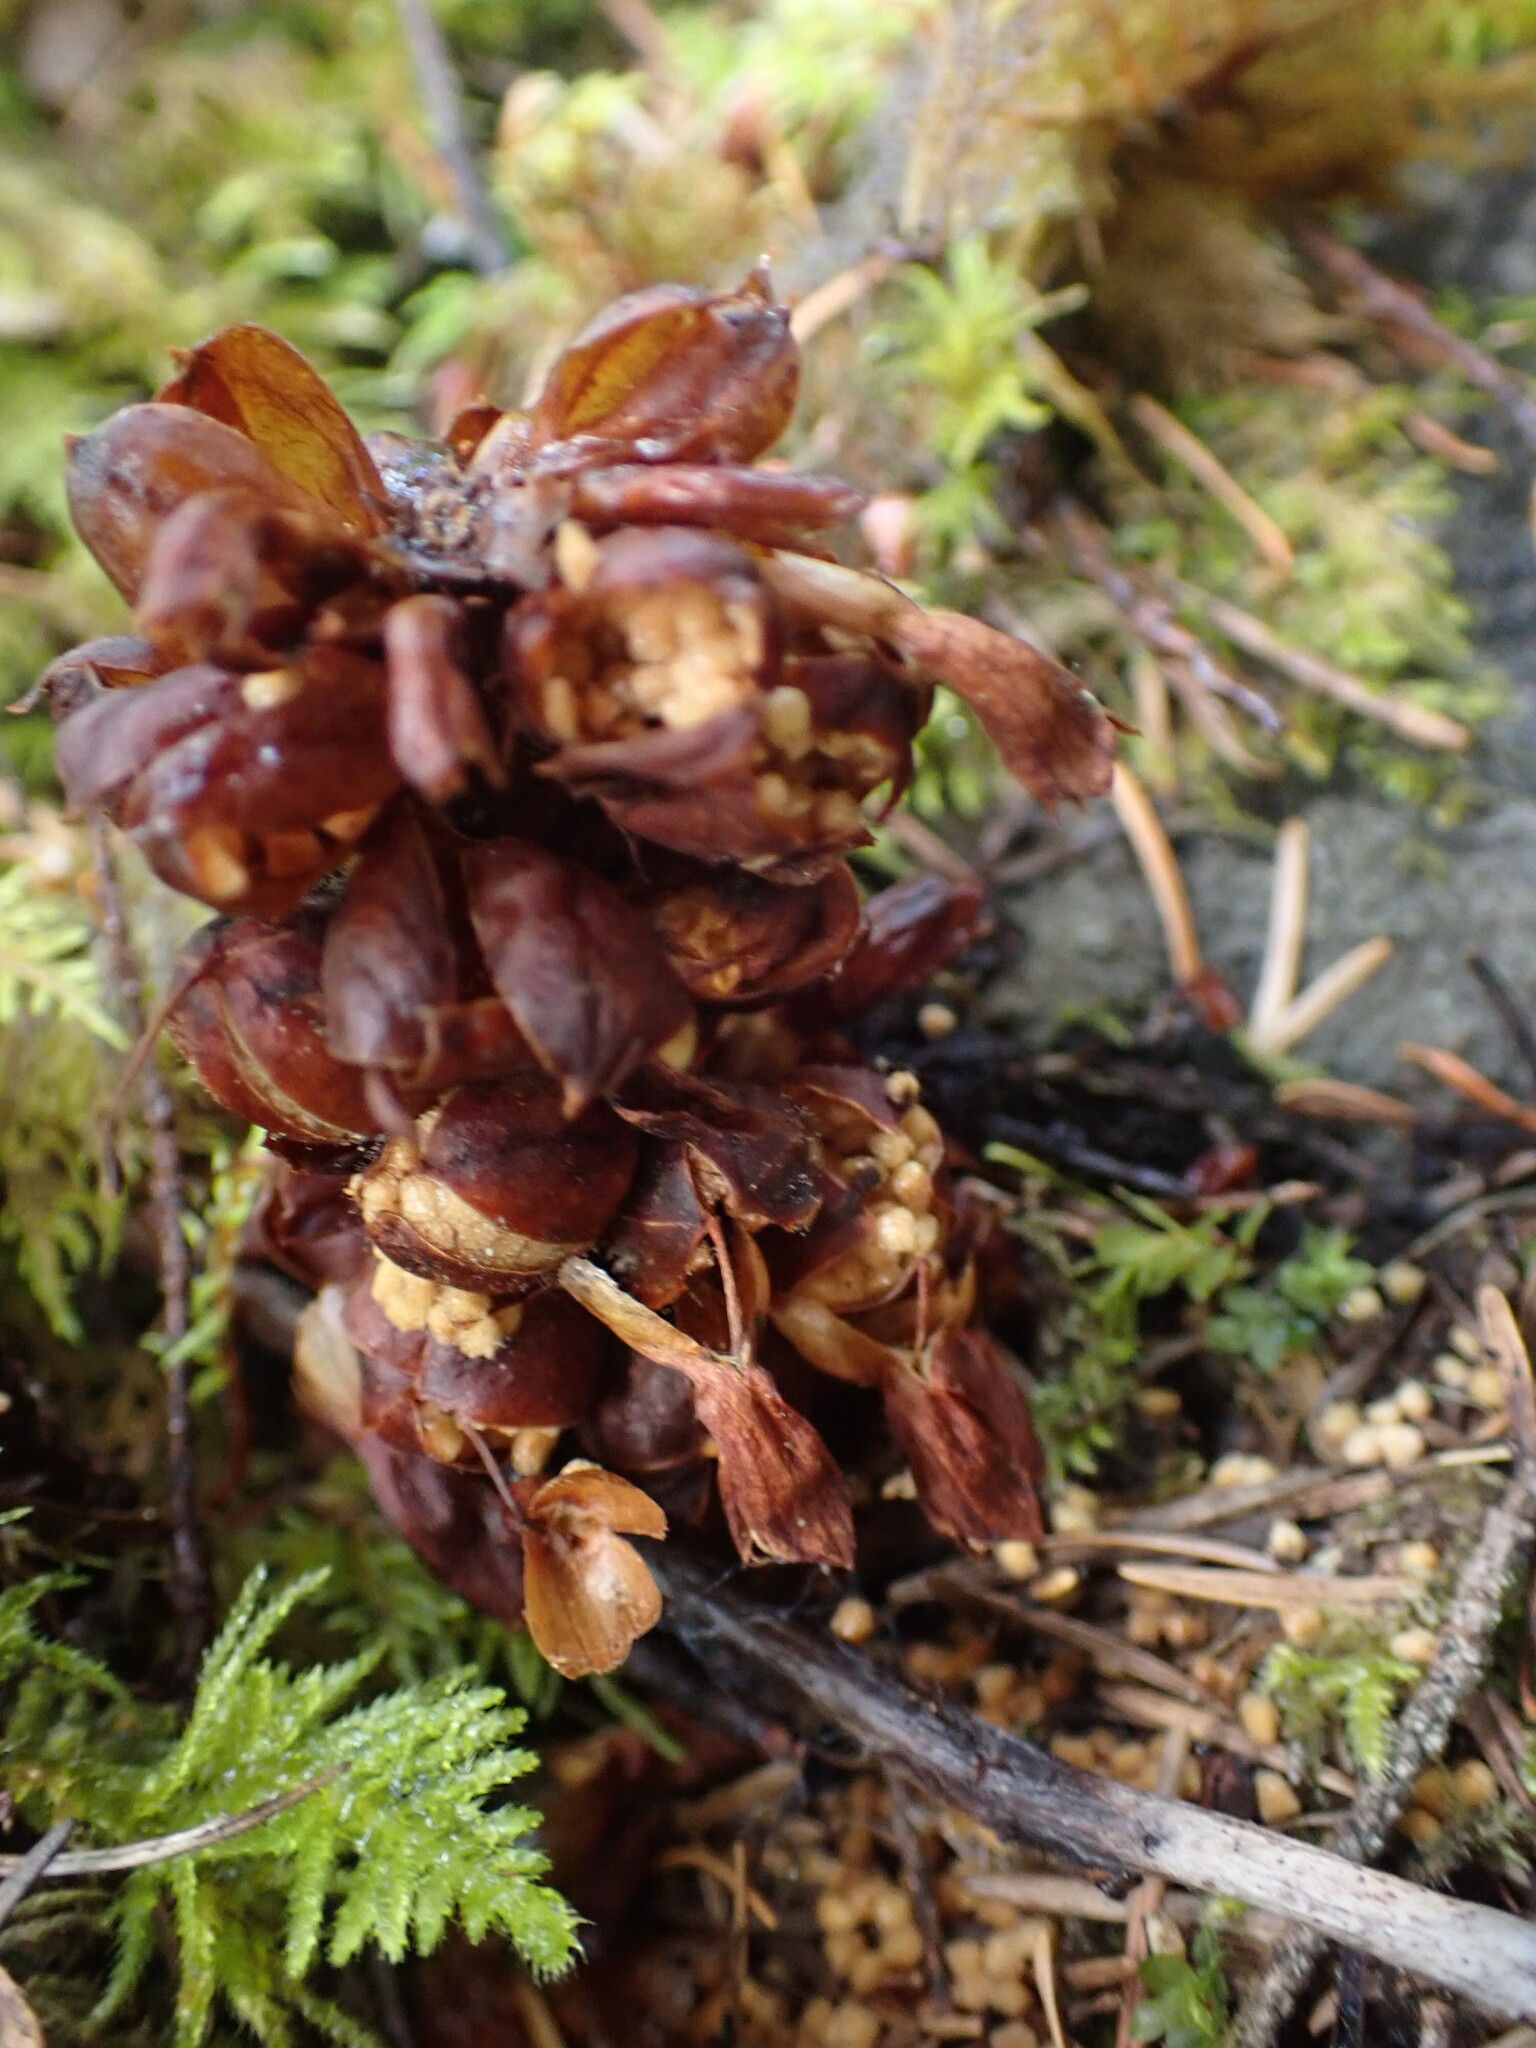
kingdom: Plantae
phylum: Tracheophyta
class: Magnoliopsida
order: Lamiales
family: Orobanchaceae
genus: Kopsiopsis
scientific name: Kopsiopsis hookeri
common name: Hooker's groundcone
